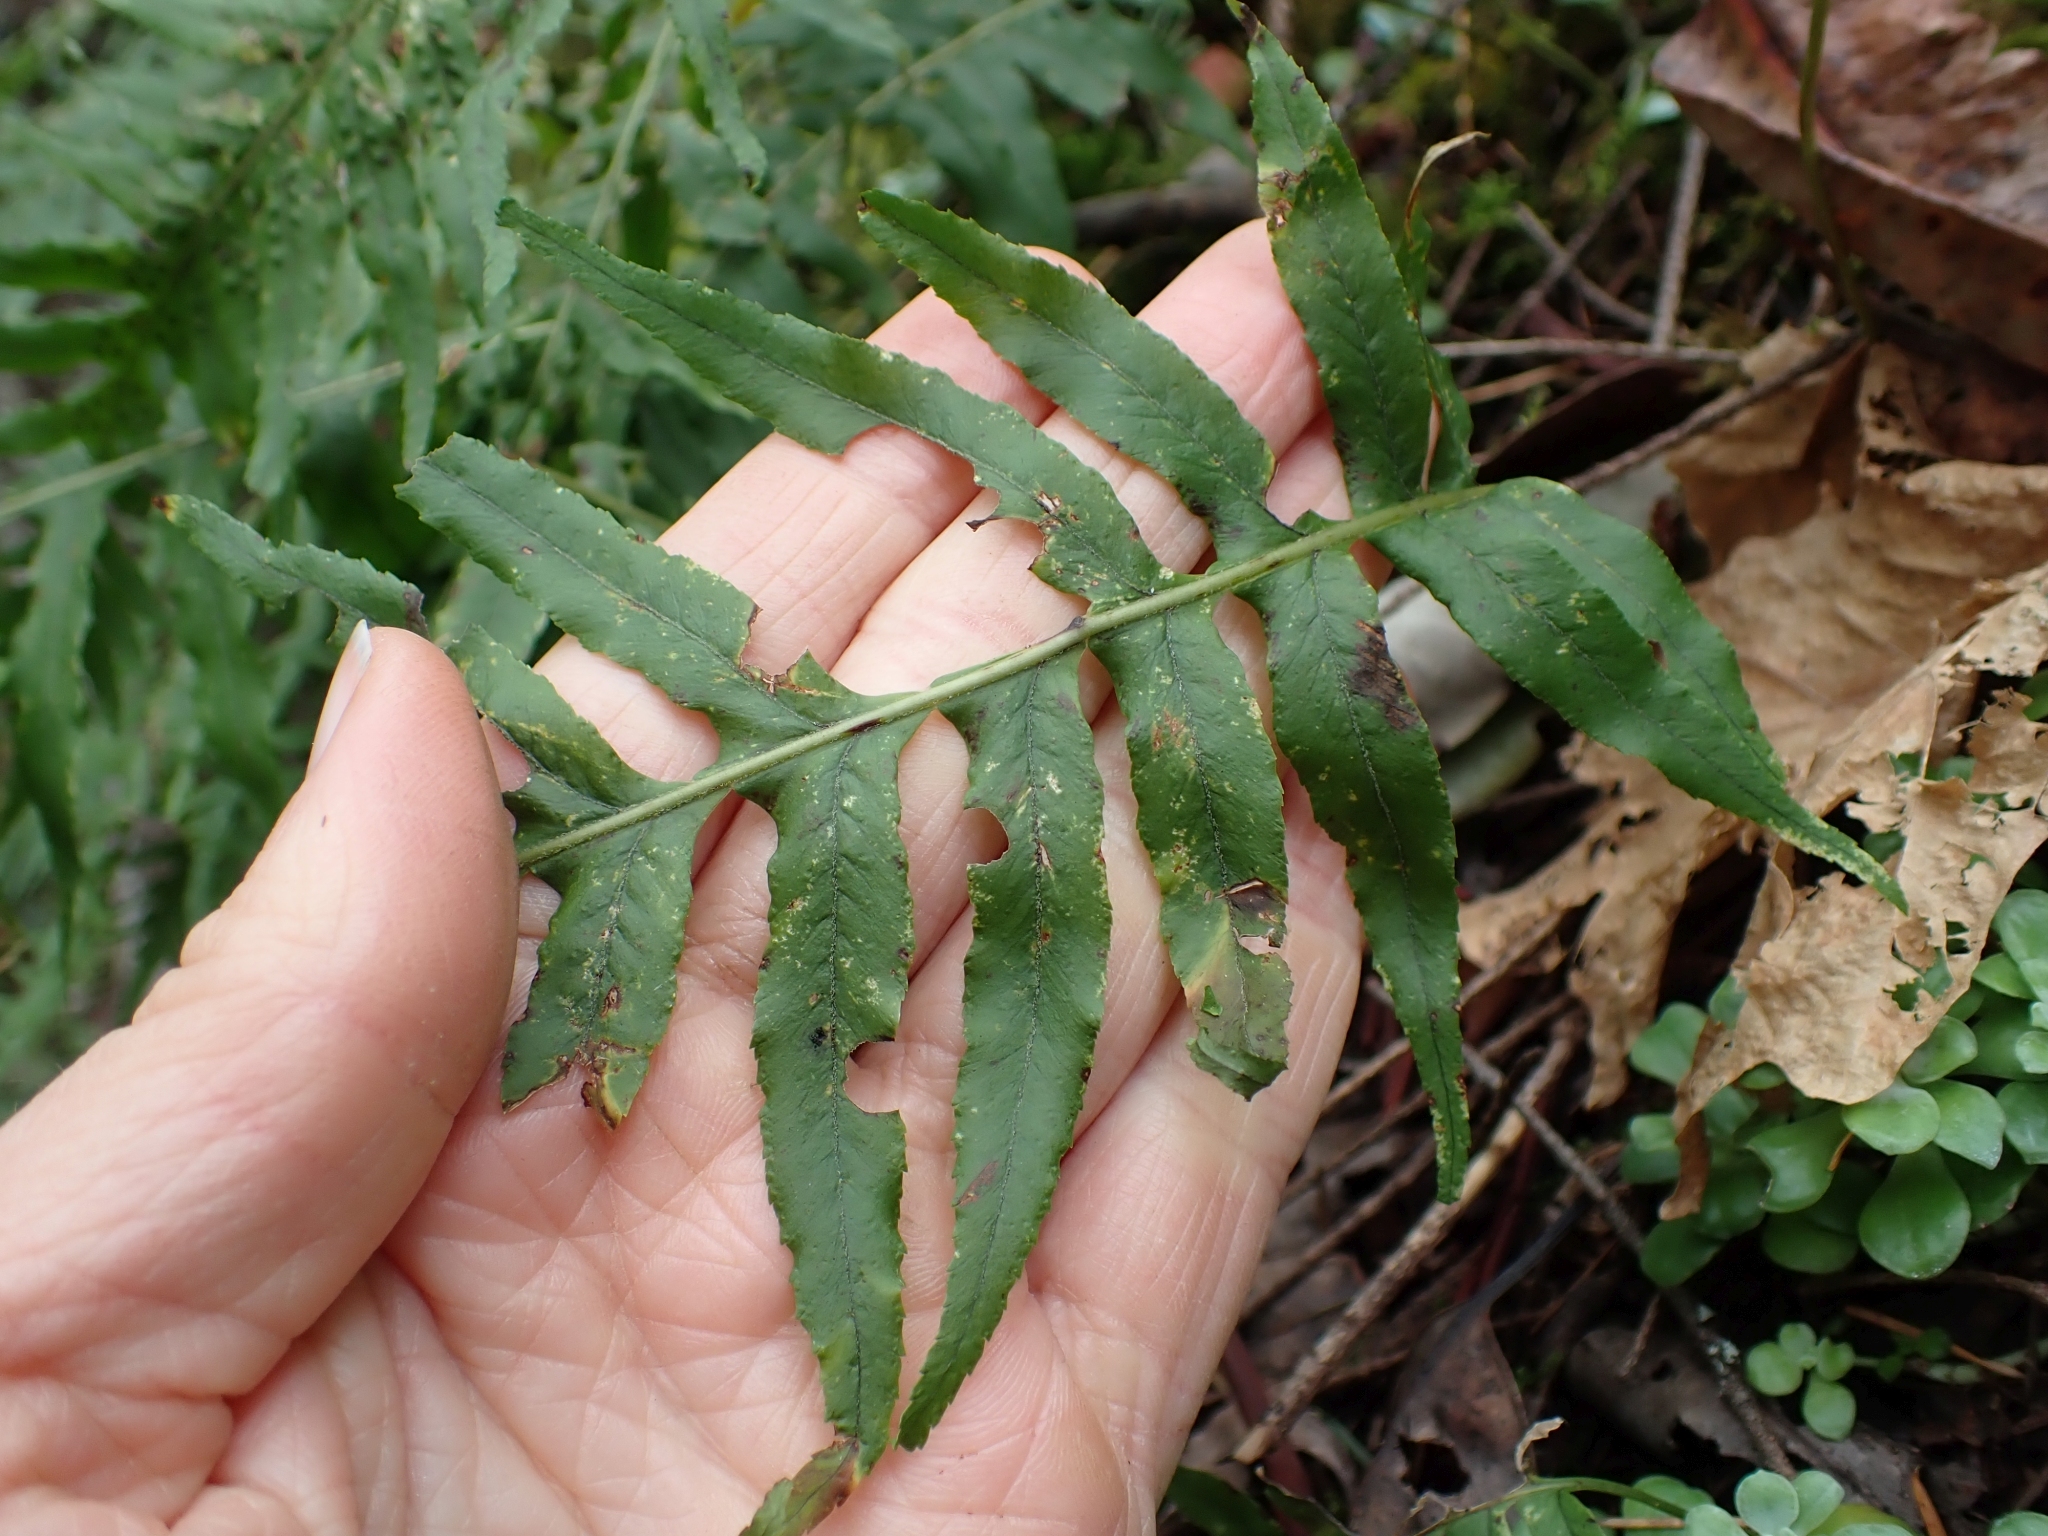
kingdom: Plantae
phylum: Tracheophyta
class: Polypodiopsida
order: Polypodiales
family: Polypodiaceae
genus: Polypodium
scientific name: Polypodium glycyrrhiza
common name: Licorice fern
